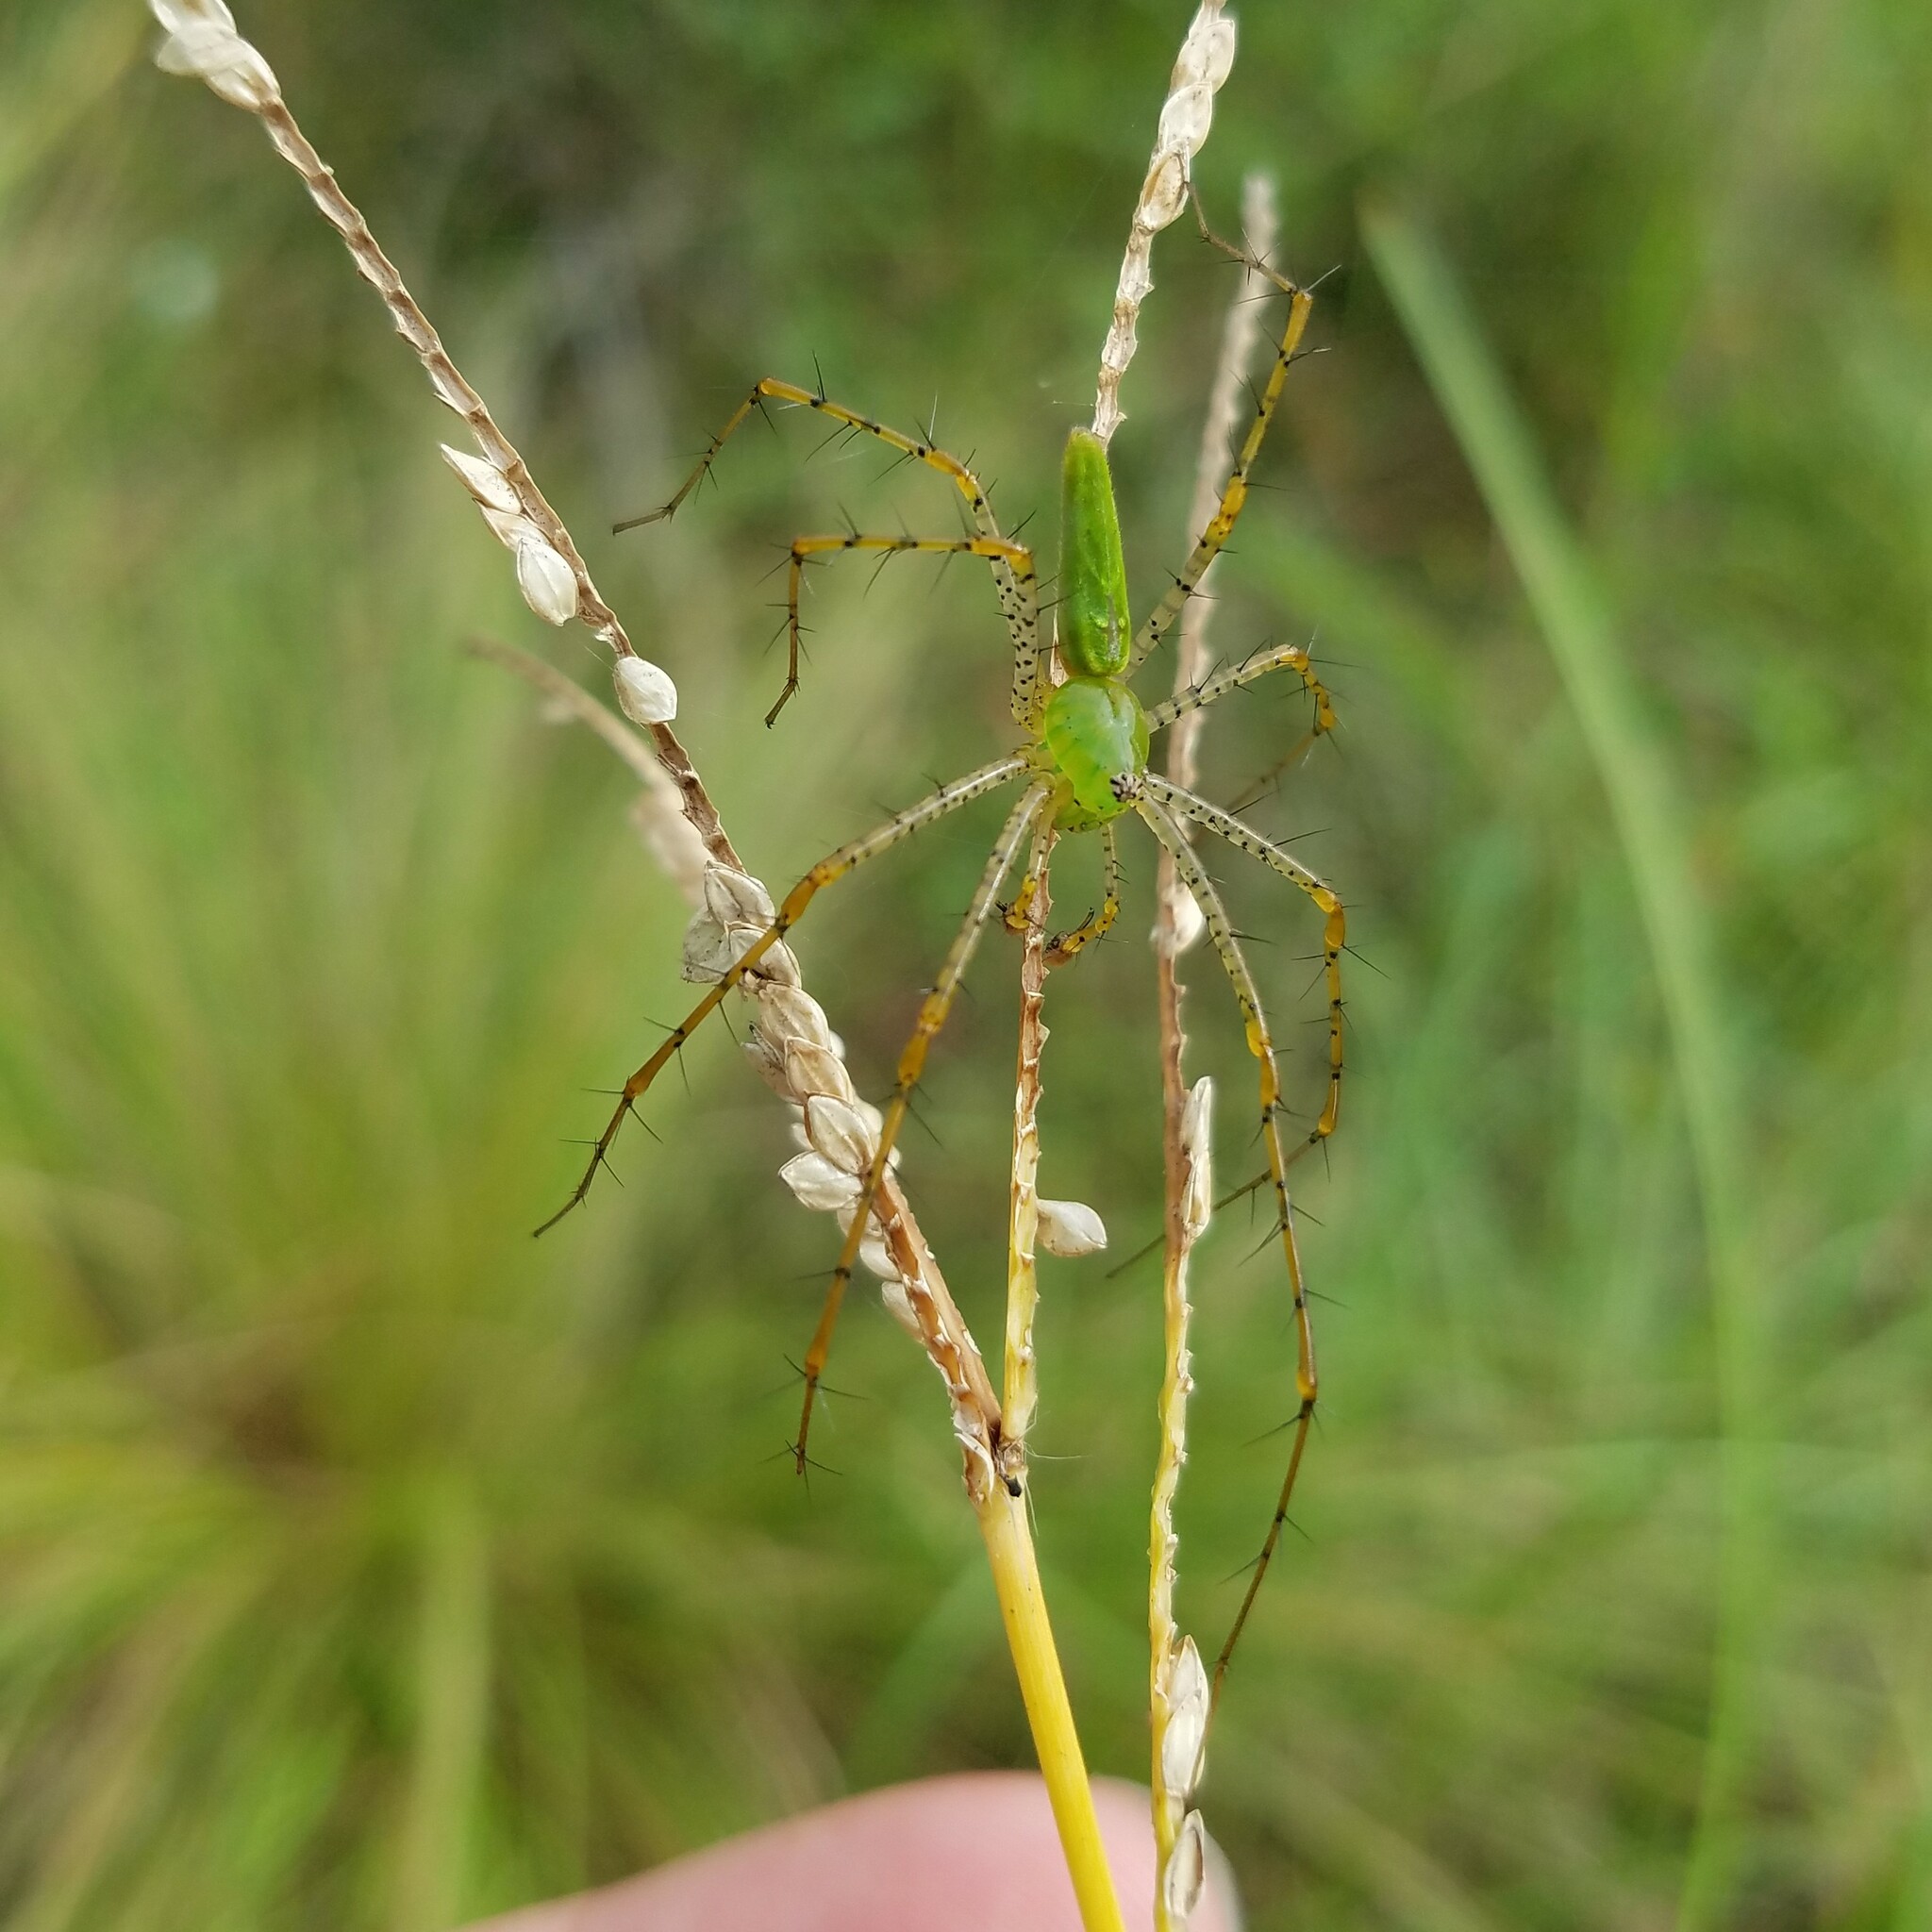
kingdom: Animalia
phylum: Arthropoda
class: Arachnida
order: Araneae
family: Oxyopidae
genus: Peucetia
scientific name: Peucetia viridans
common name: Lynx spiders
